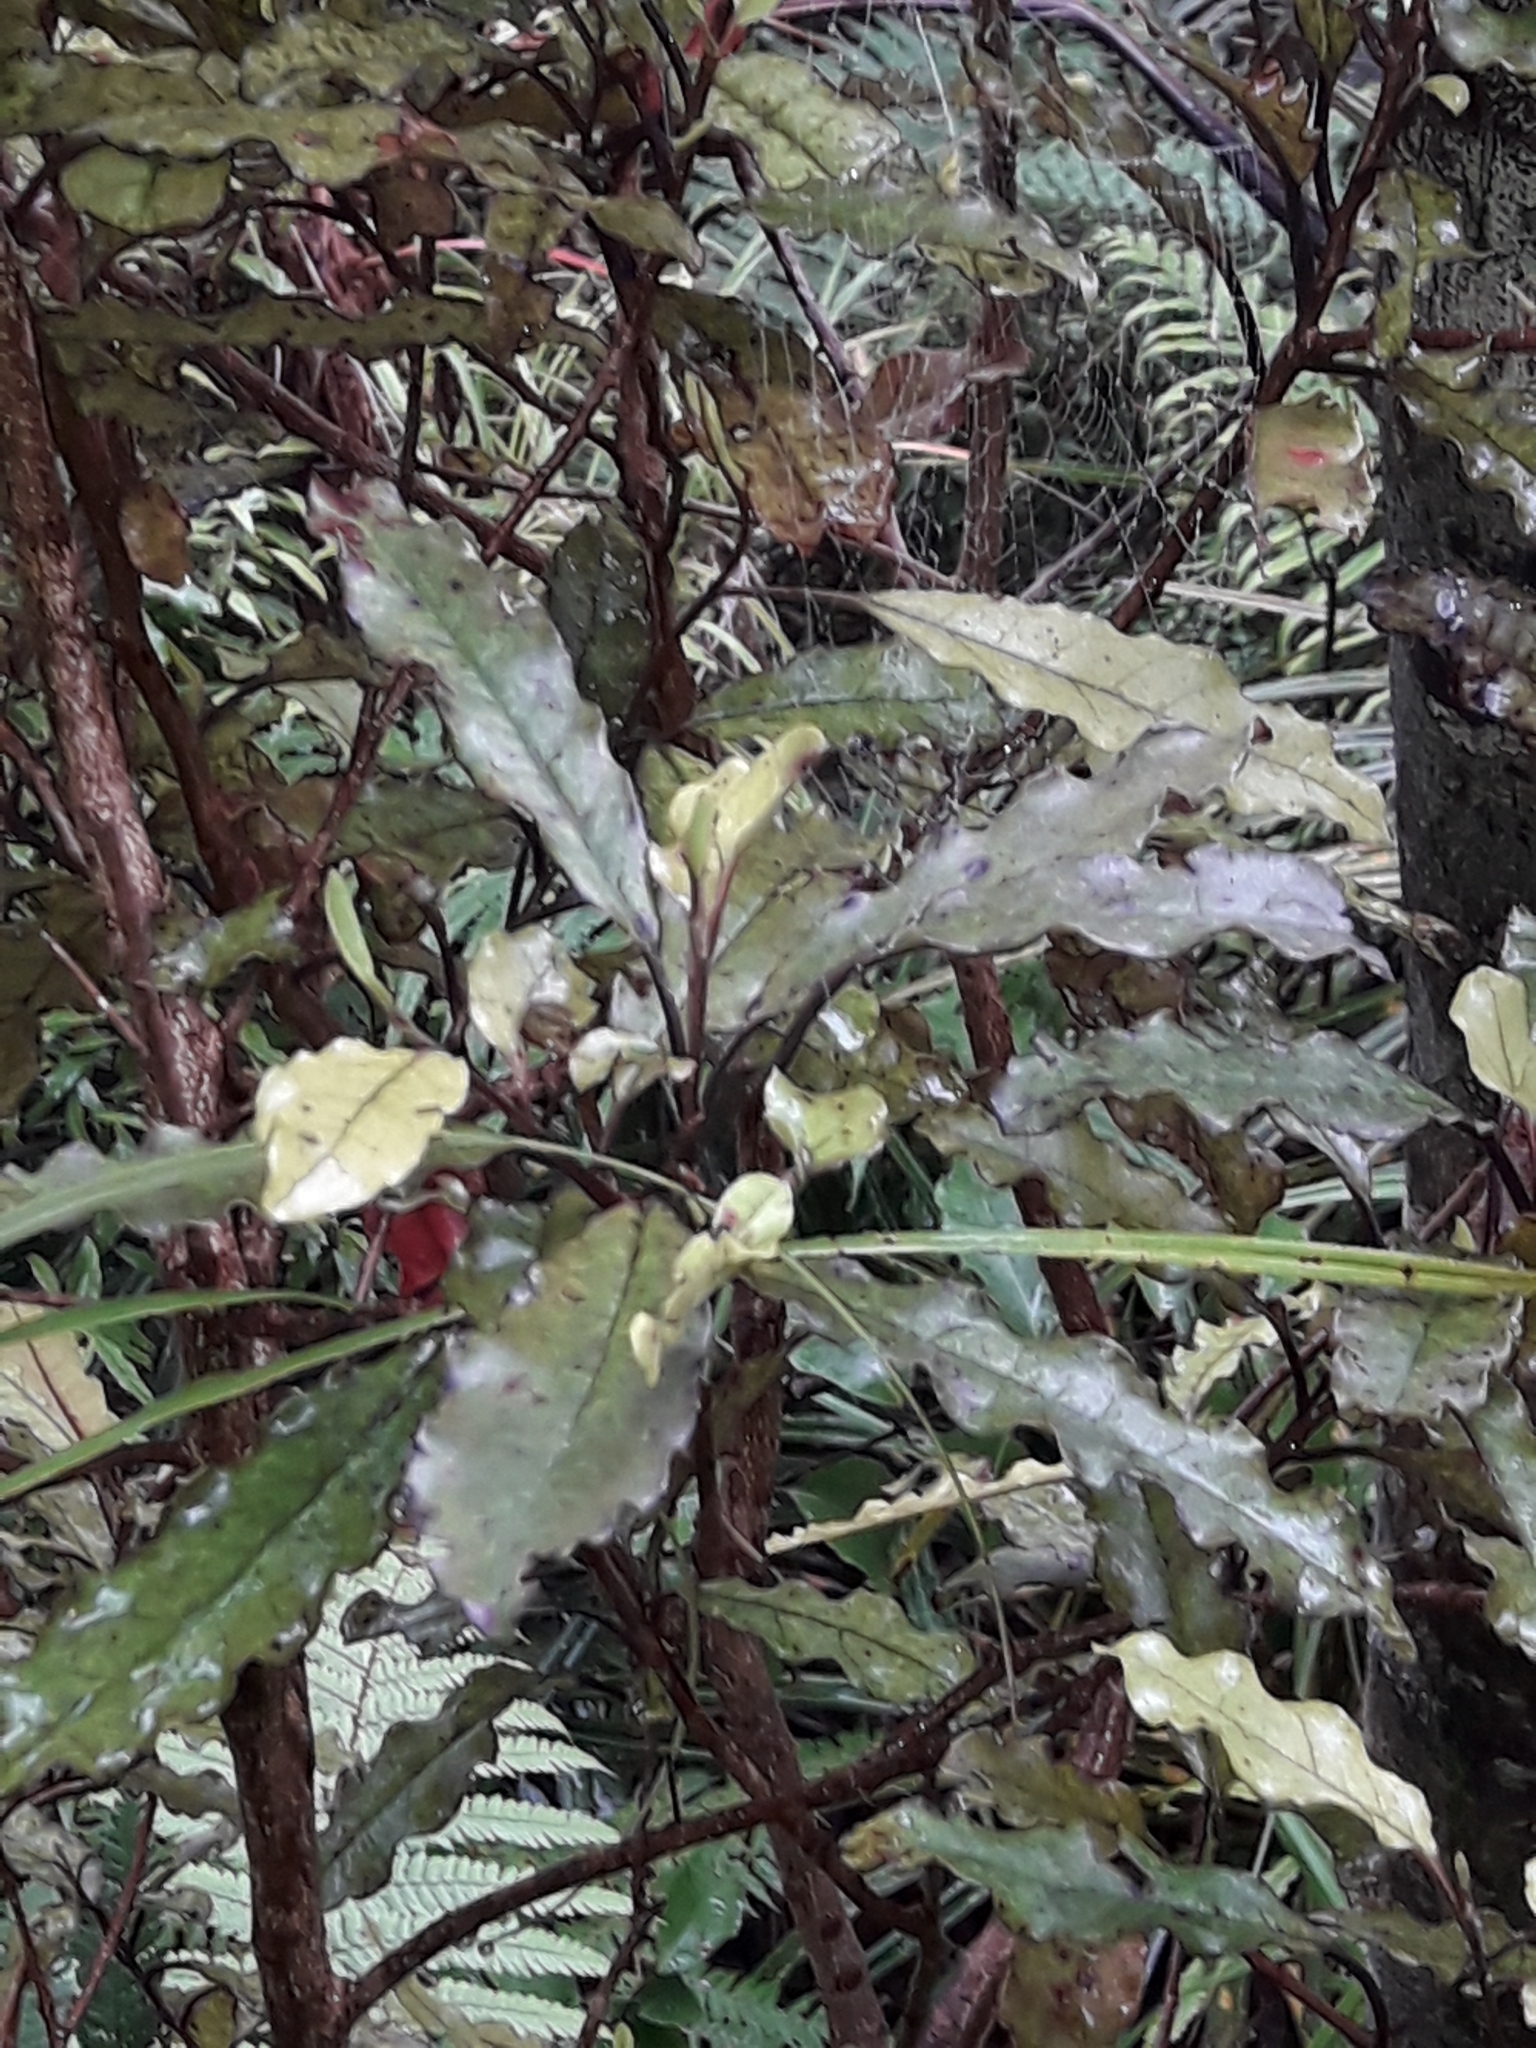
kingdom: Plantae
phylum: Tracheophyta
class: Magnoliopsida
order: Paracryphiales
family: Paracryphiaceae
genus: Quintinia
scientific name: Quintinia serrata
